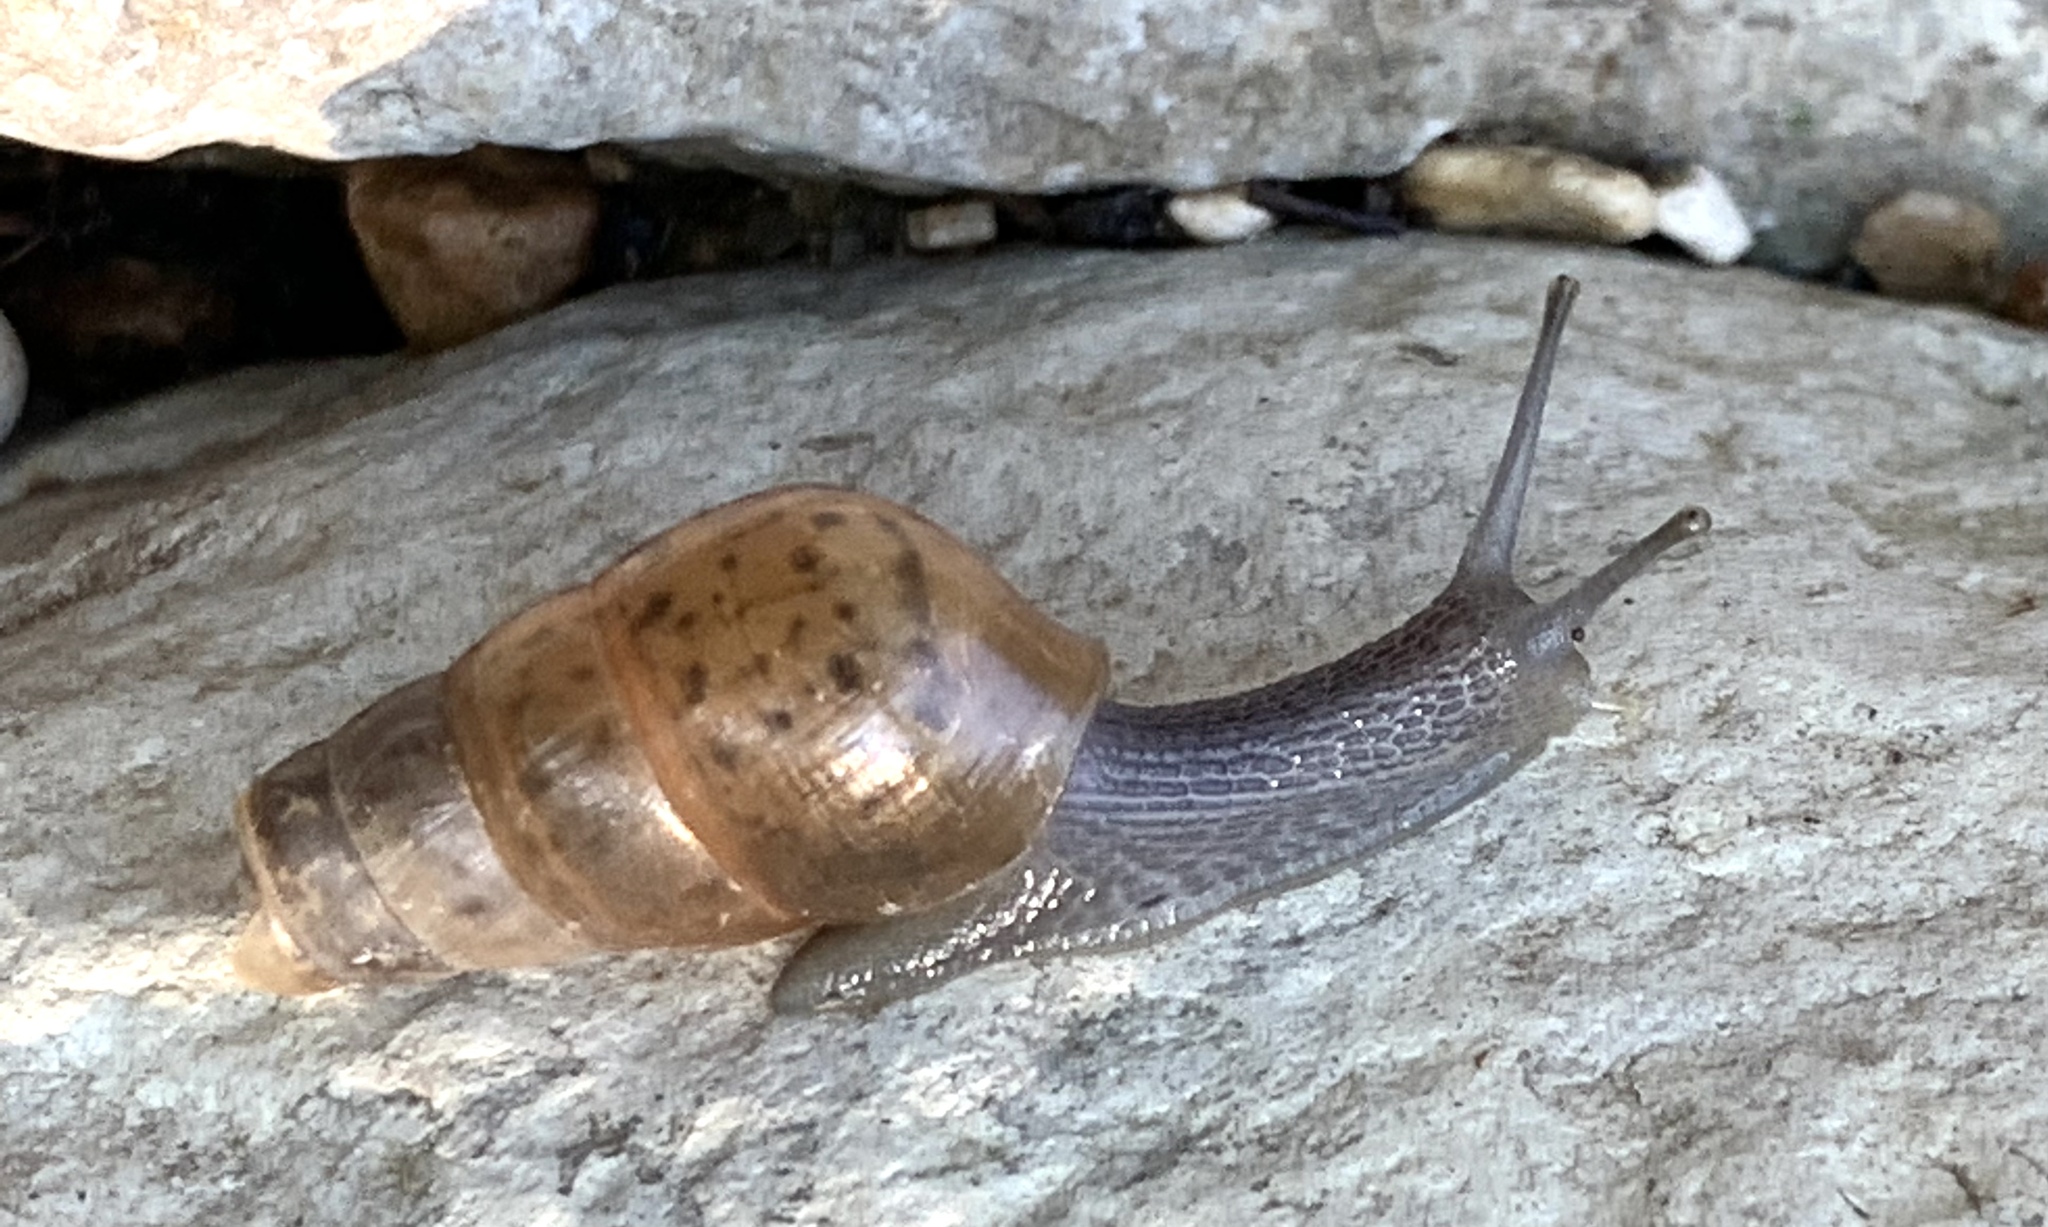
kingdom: Animalia
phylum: Mollusca
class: Gastropoda
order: Stylommatophora
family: Achatinidae
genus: Rumina
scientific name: Rumina decollata
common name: Decollate snail
